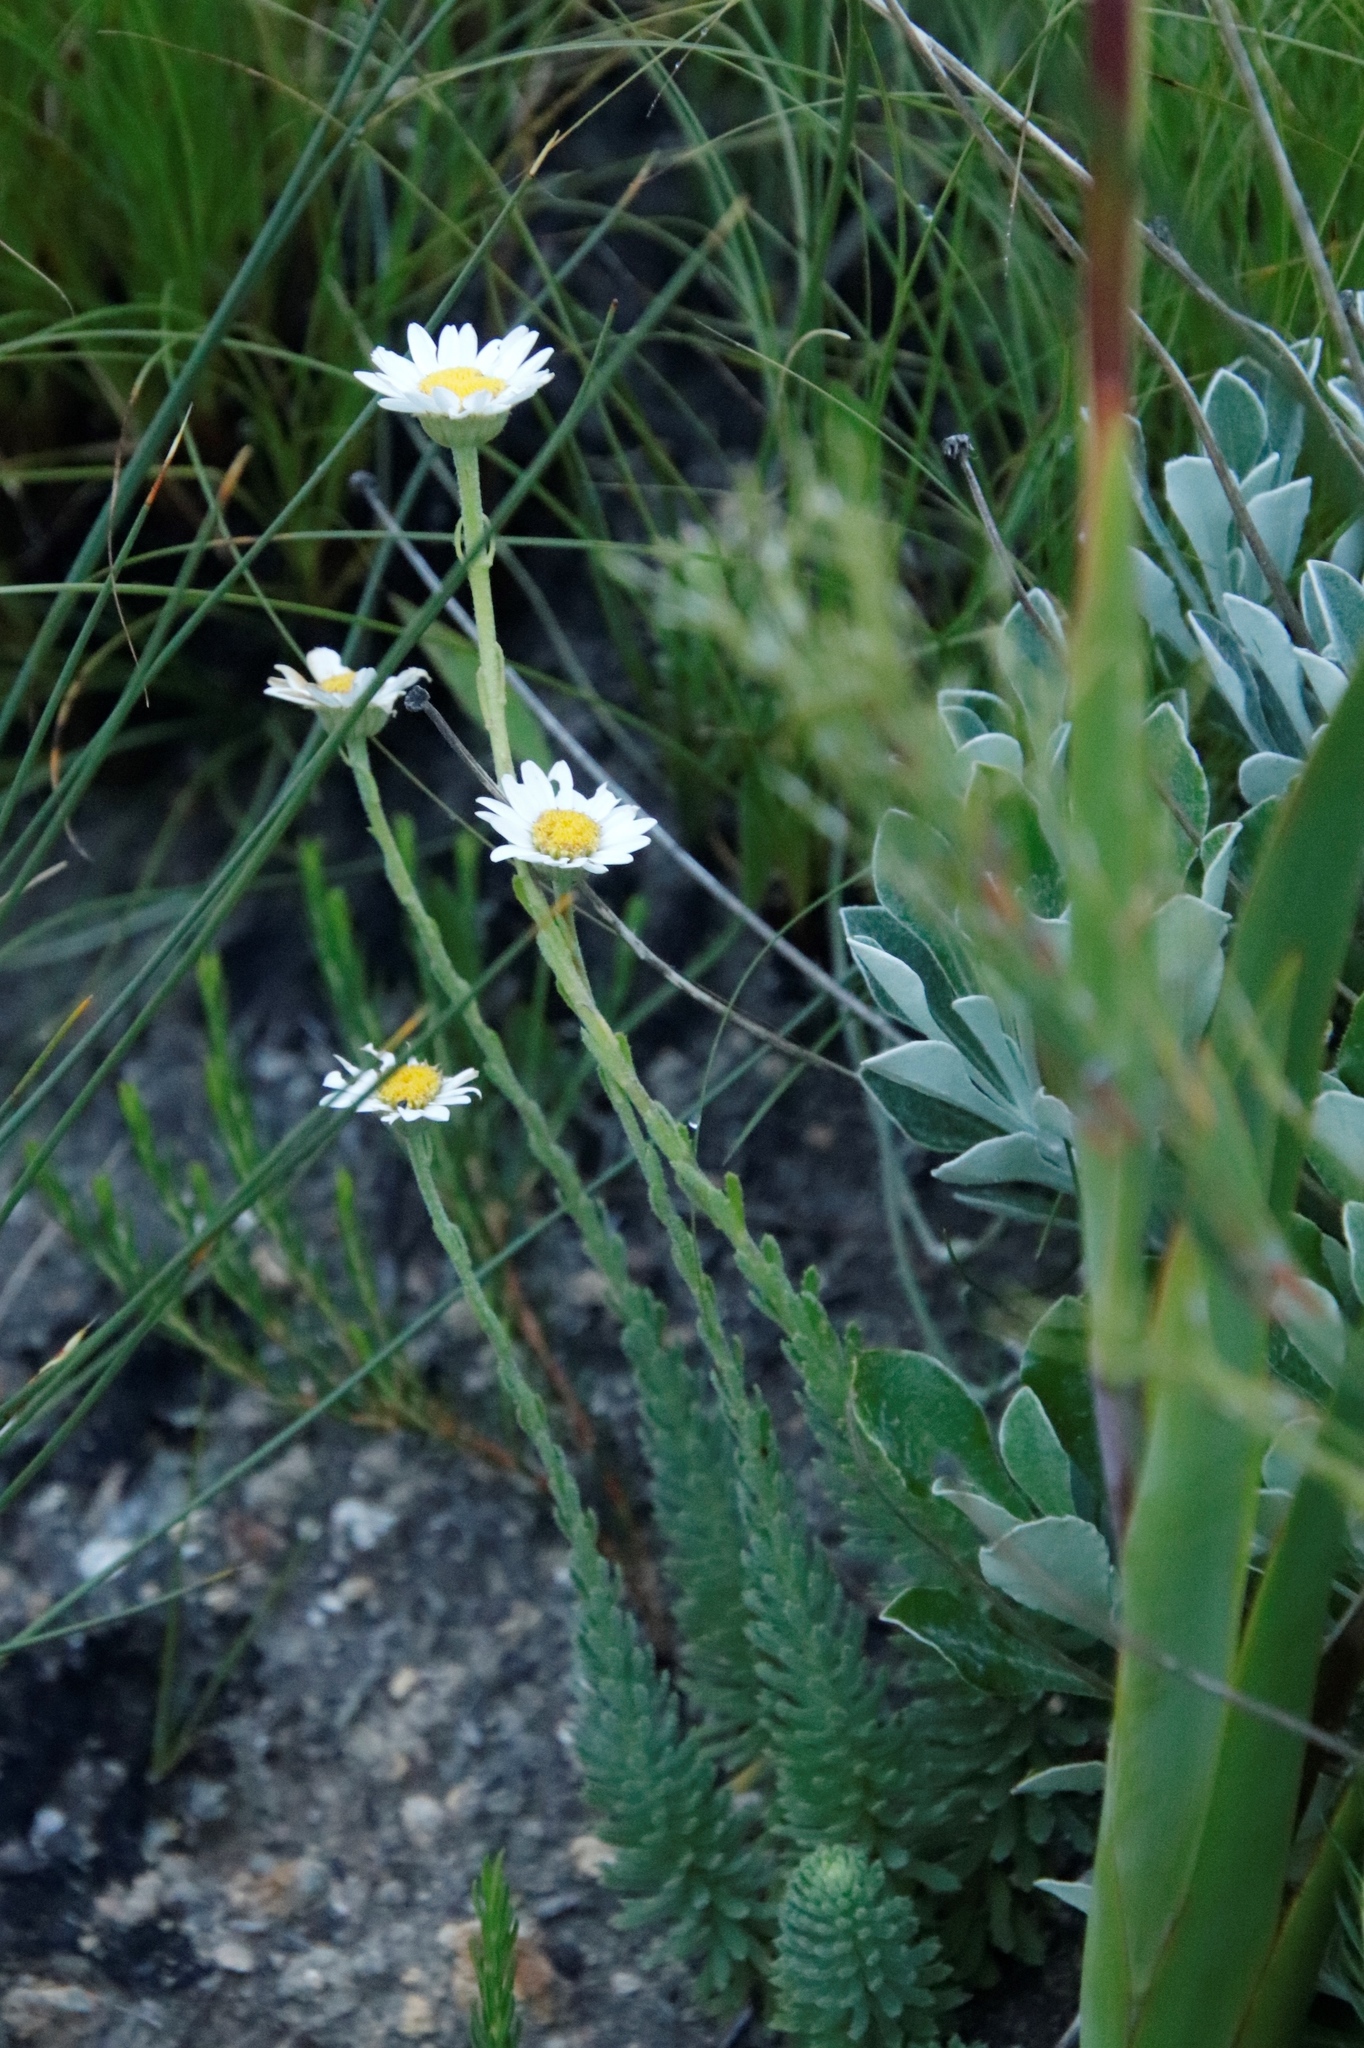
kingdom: Plantae
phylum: Tracheophyta
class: Magnoliopsida
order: Asterales
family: Asteraceae
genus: Osmitopsis
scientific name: Osmitopsis afra
